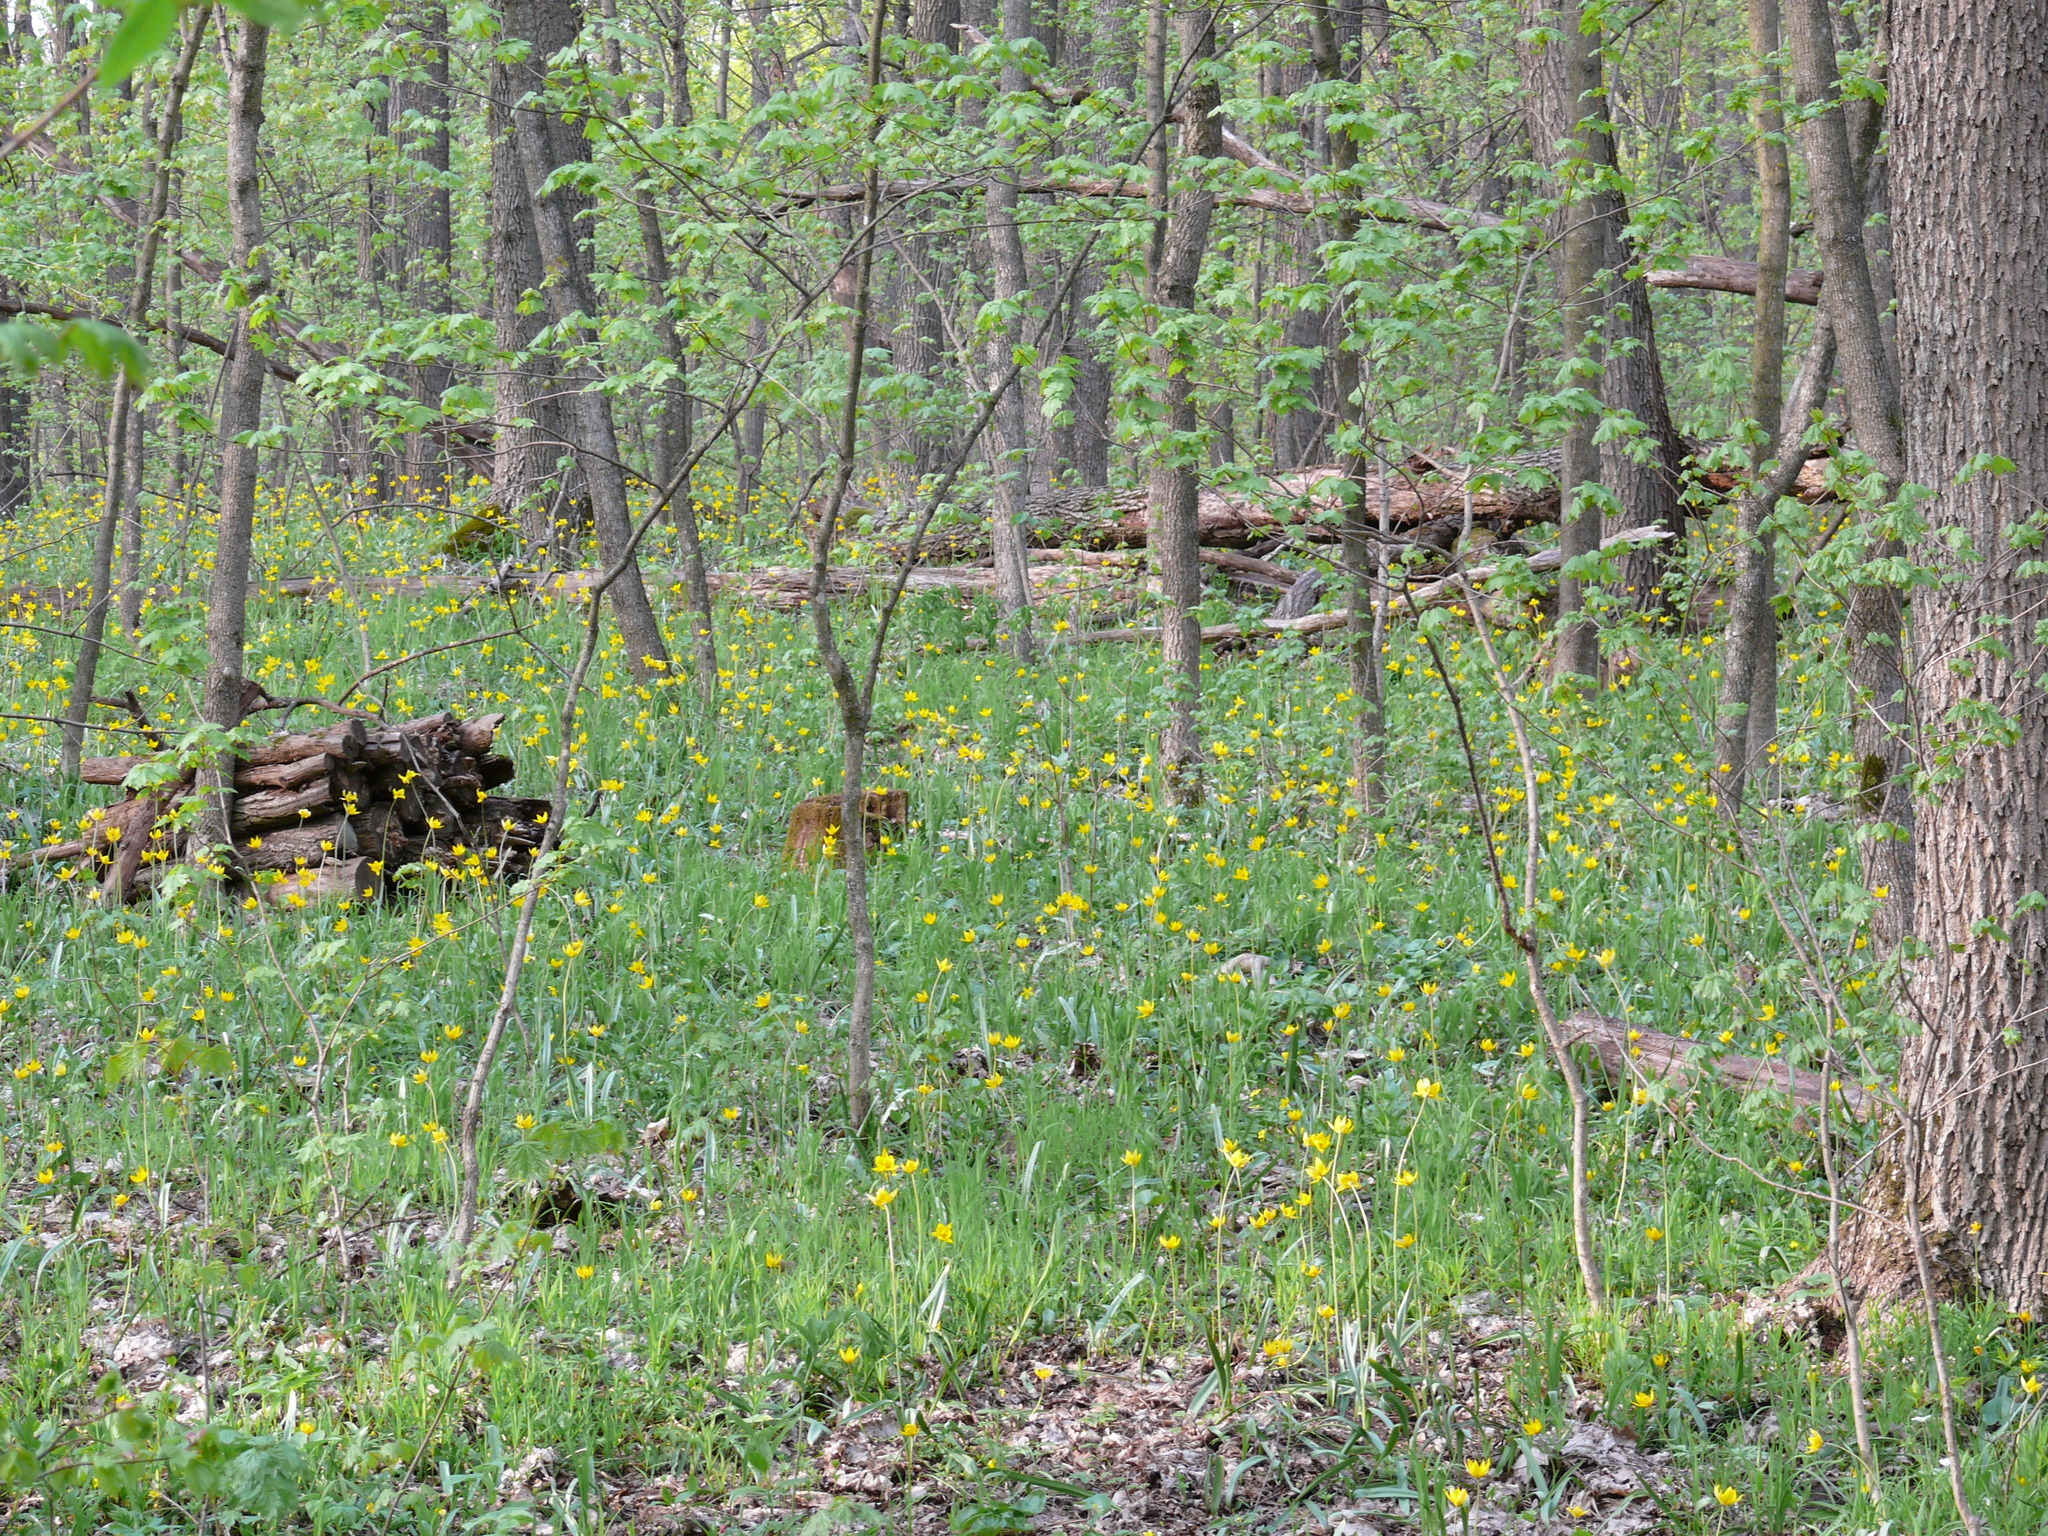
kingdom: Plantae
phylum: Tracheophyta
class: Liliopsida
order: Liliales
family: Liliaceae
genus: Tulipa
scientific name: Tulipa sylvestris
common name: Wild tulip
